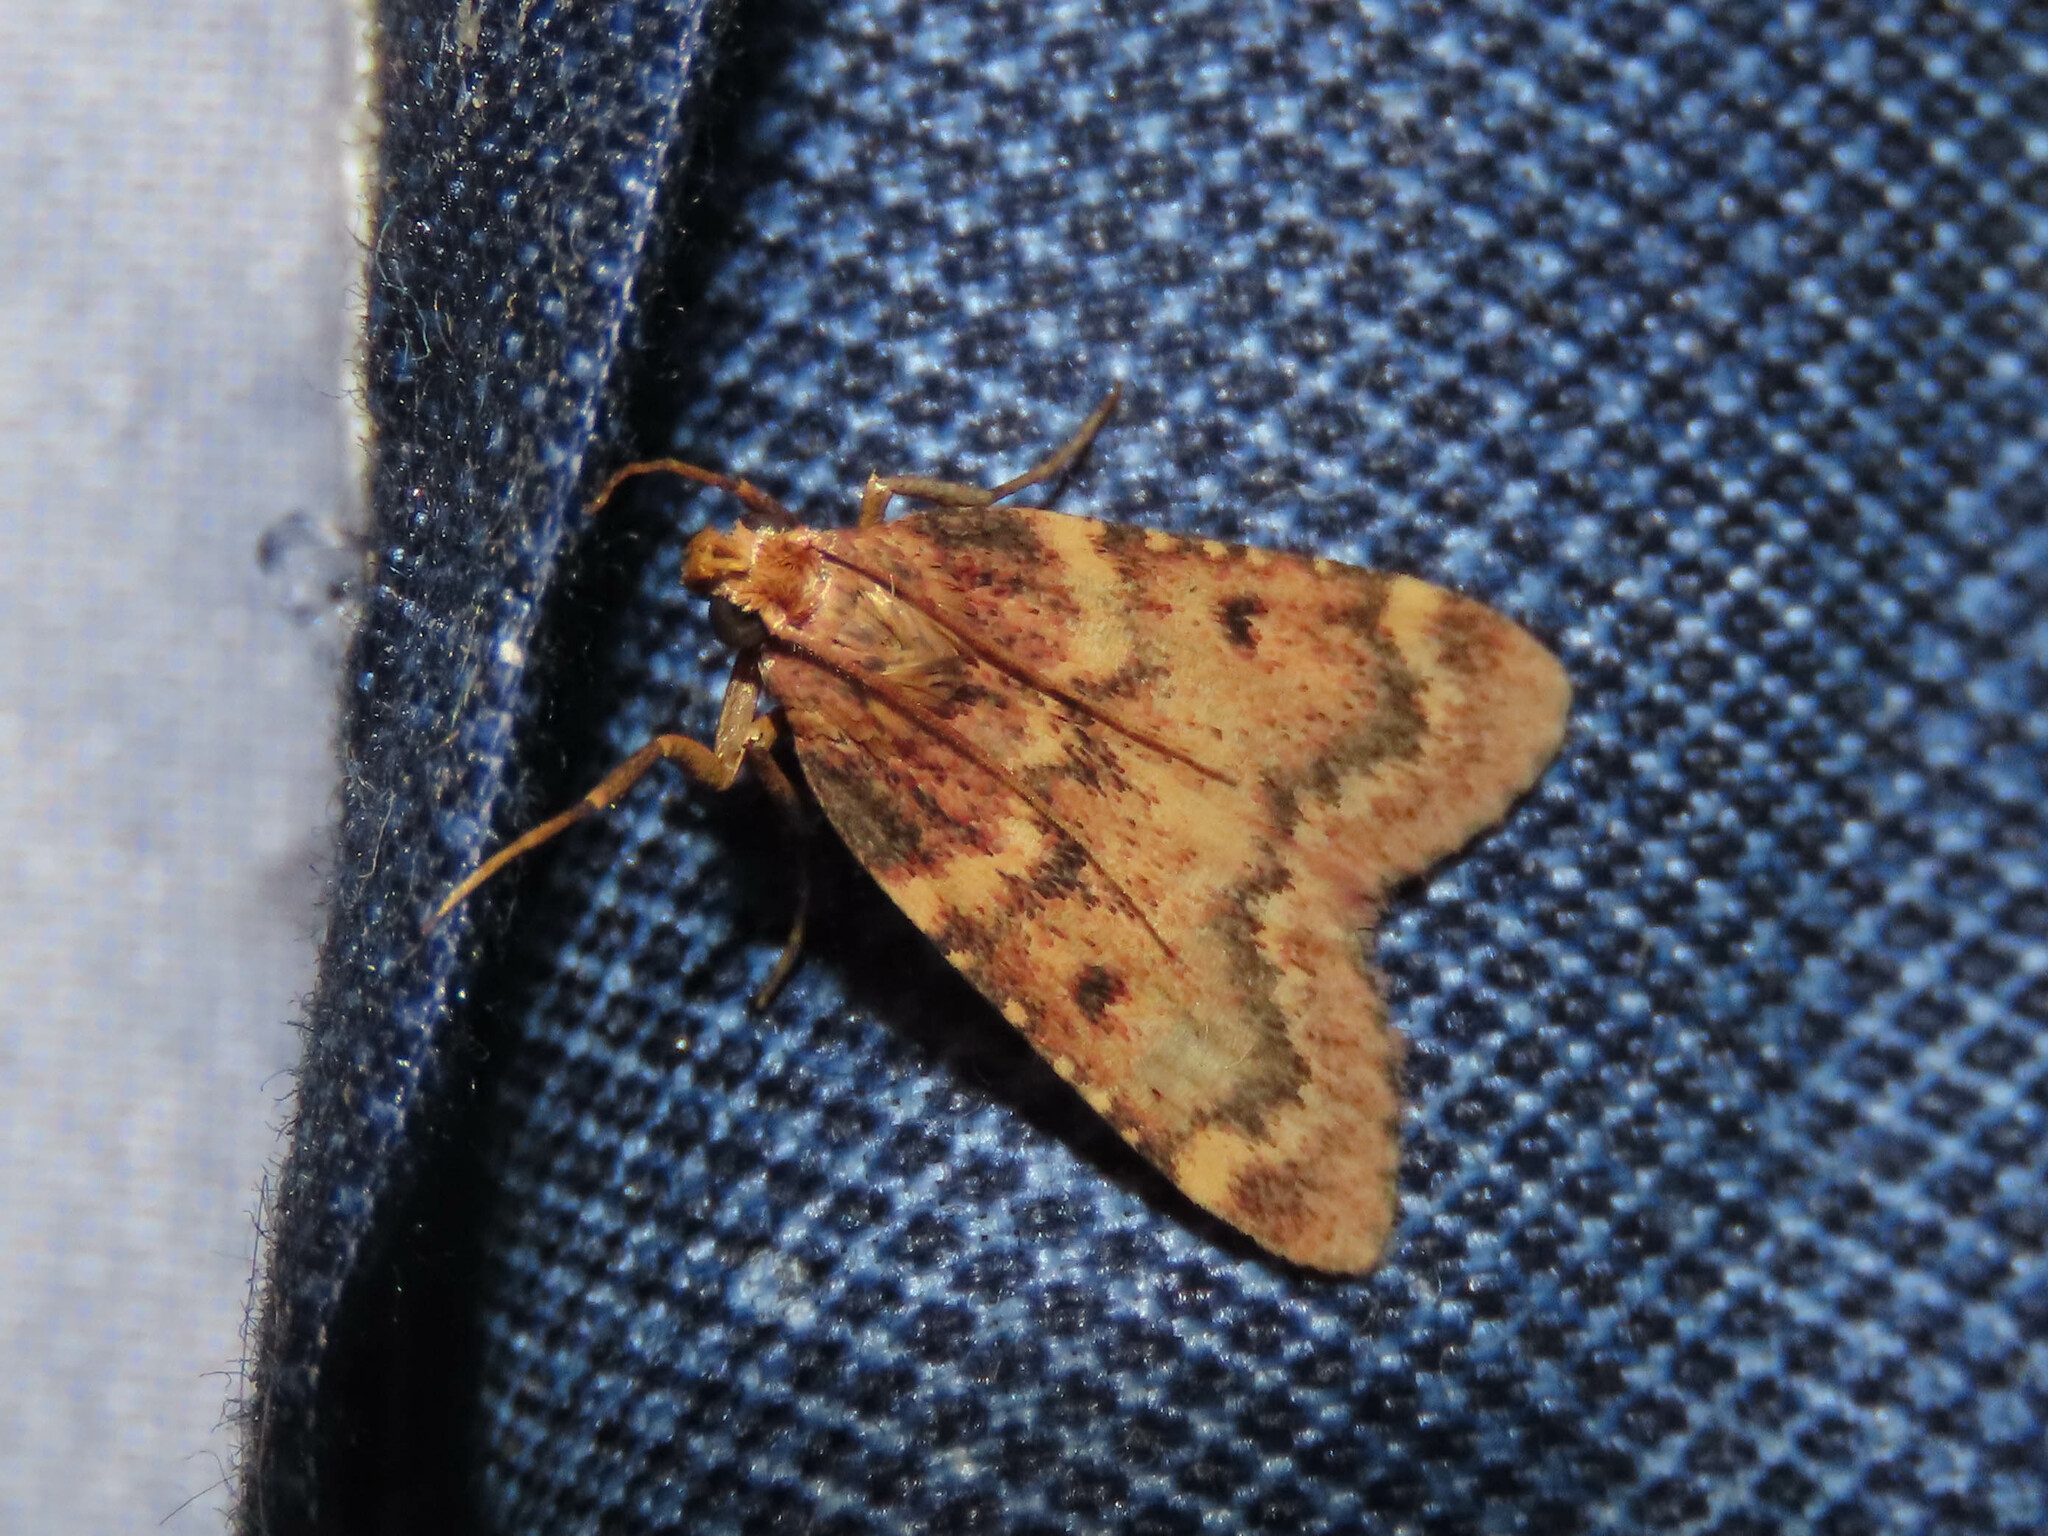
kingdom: Animalia
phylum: Arthropoda
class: Insecta
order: Lepidoptera
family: Pyralidae
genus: Aglossa
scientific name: Aglossa disciferalis
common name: Pink-masked pyralid moth
